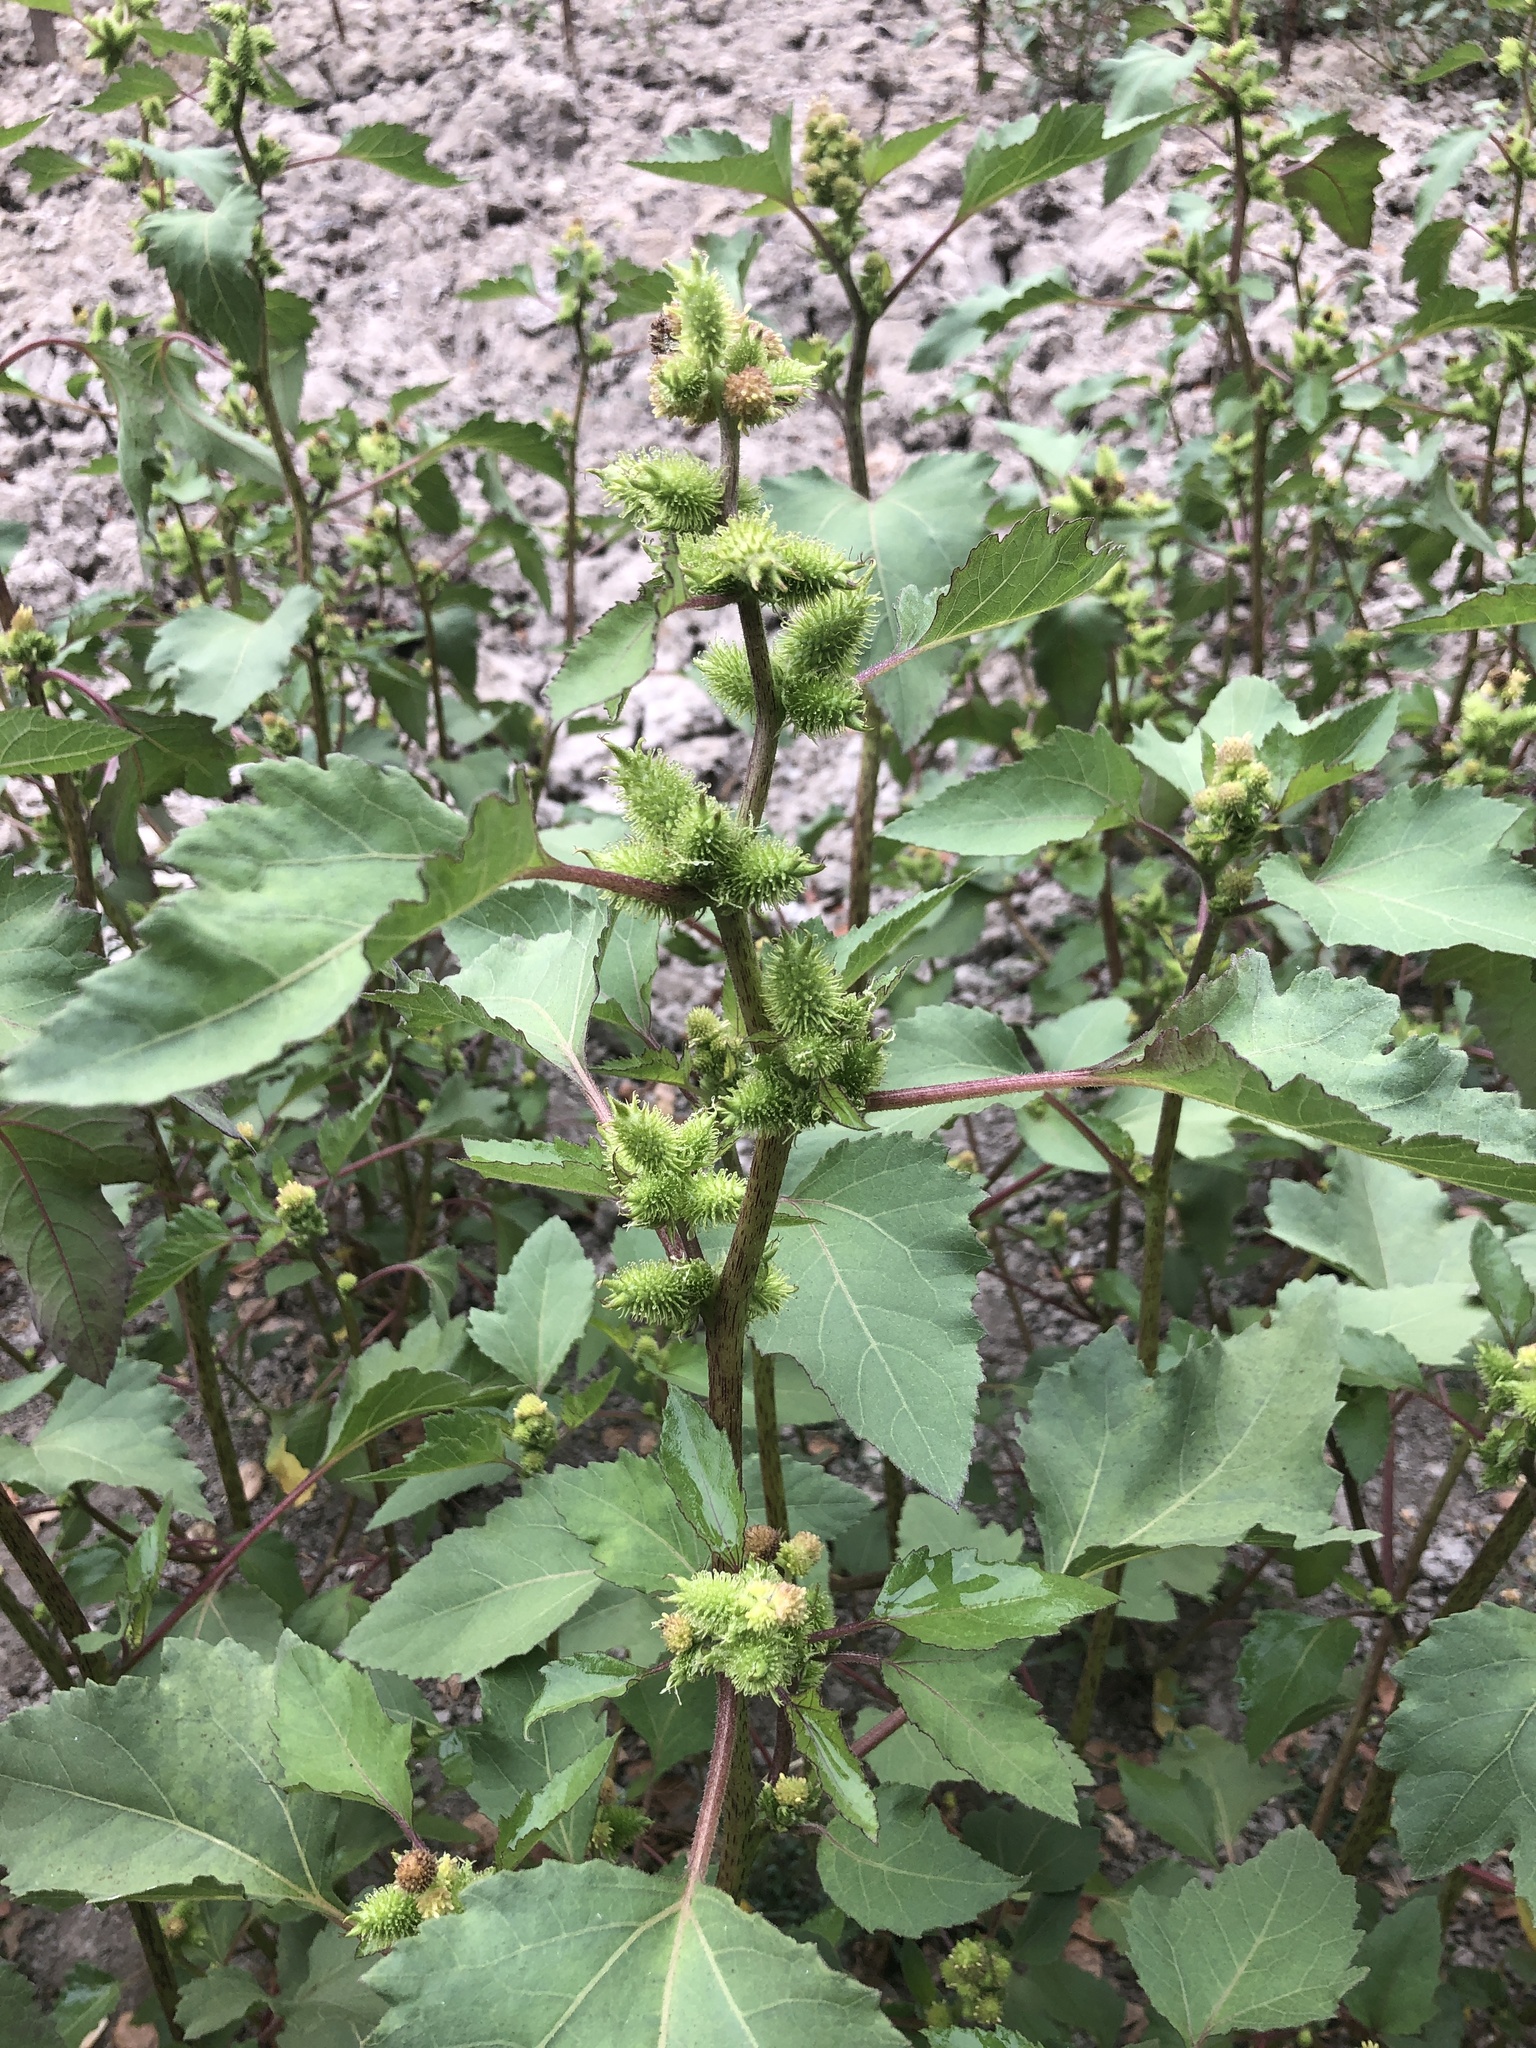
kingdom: Plantae
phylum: Tracheophyta
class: Magnoliopsida
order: Asterales
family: Asteraceae
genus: Xanthium
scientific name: Xanthium strumarium
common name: Rough cocklebur
